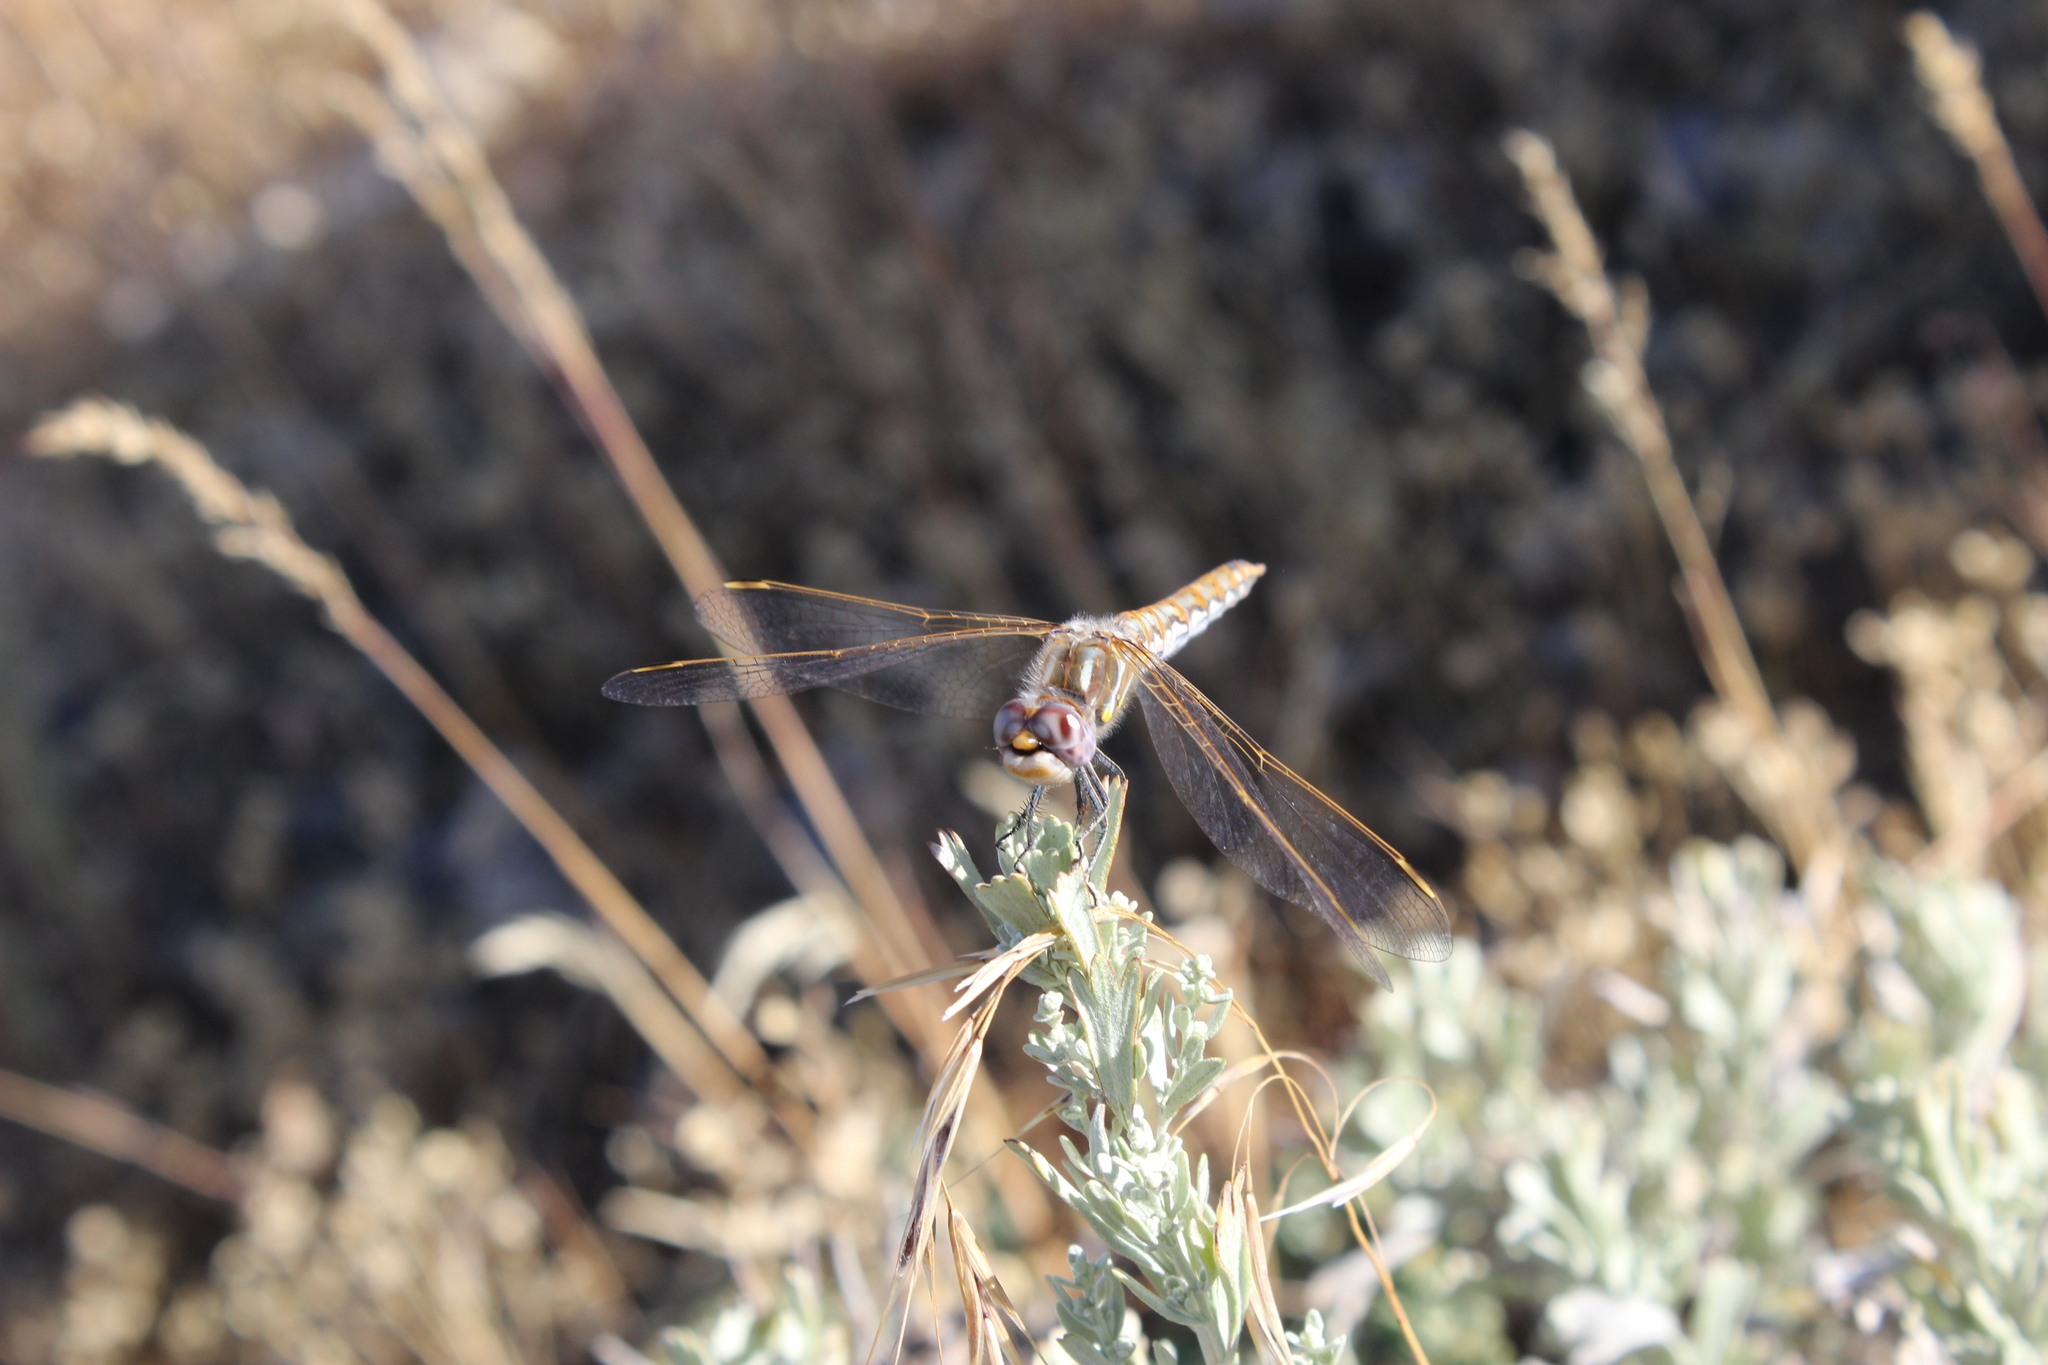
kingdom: Animalia
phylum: Arthropoda
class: Insecta
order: Odonata
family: Libellulidae
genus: Sympetrum
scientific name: Sympetrum corruptum
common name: Variegated meadowhawk
